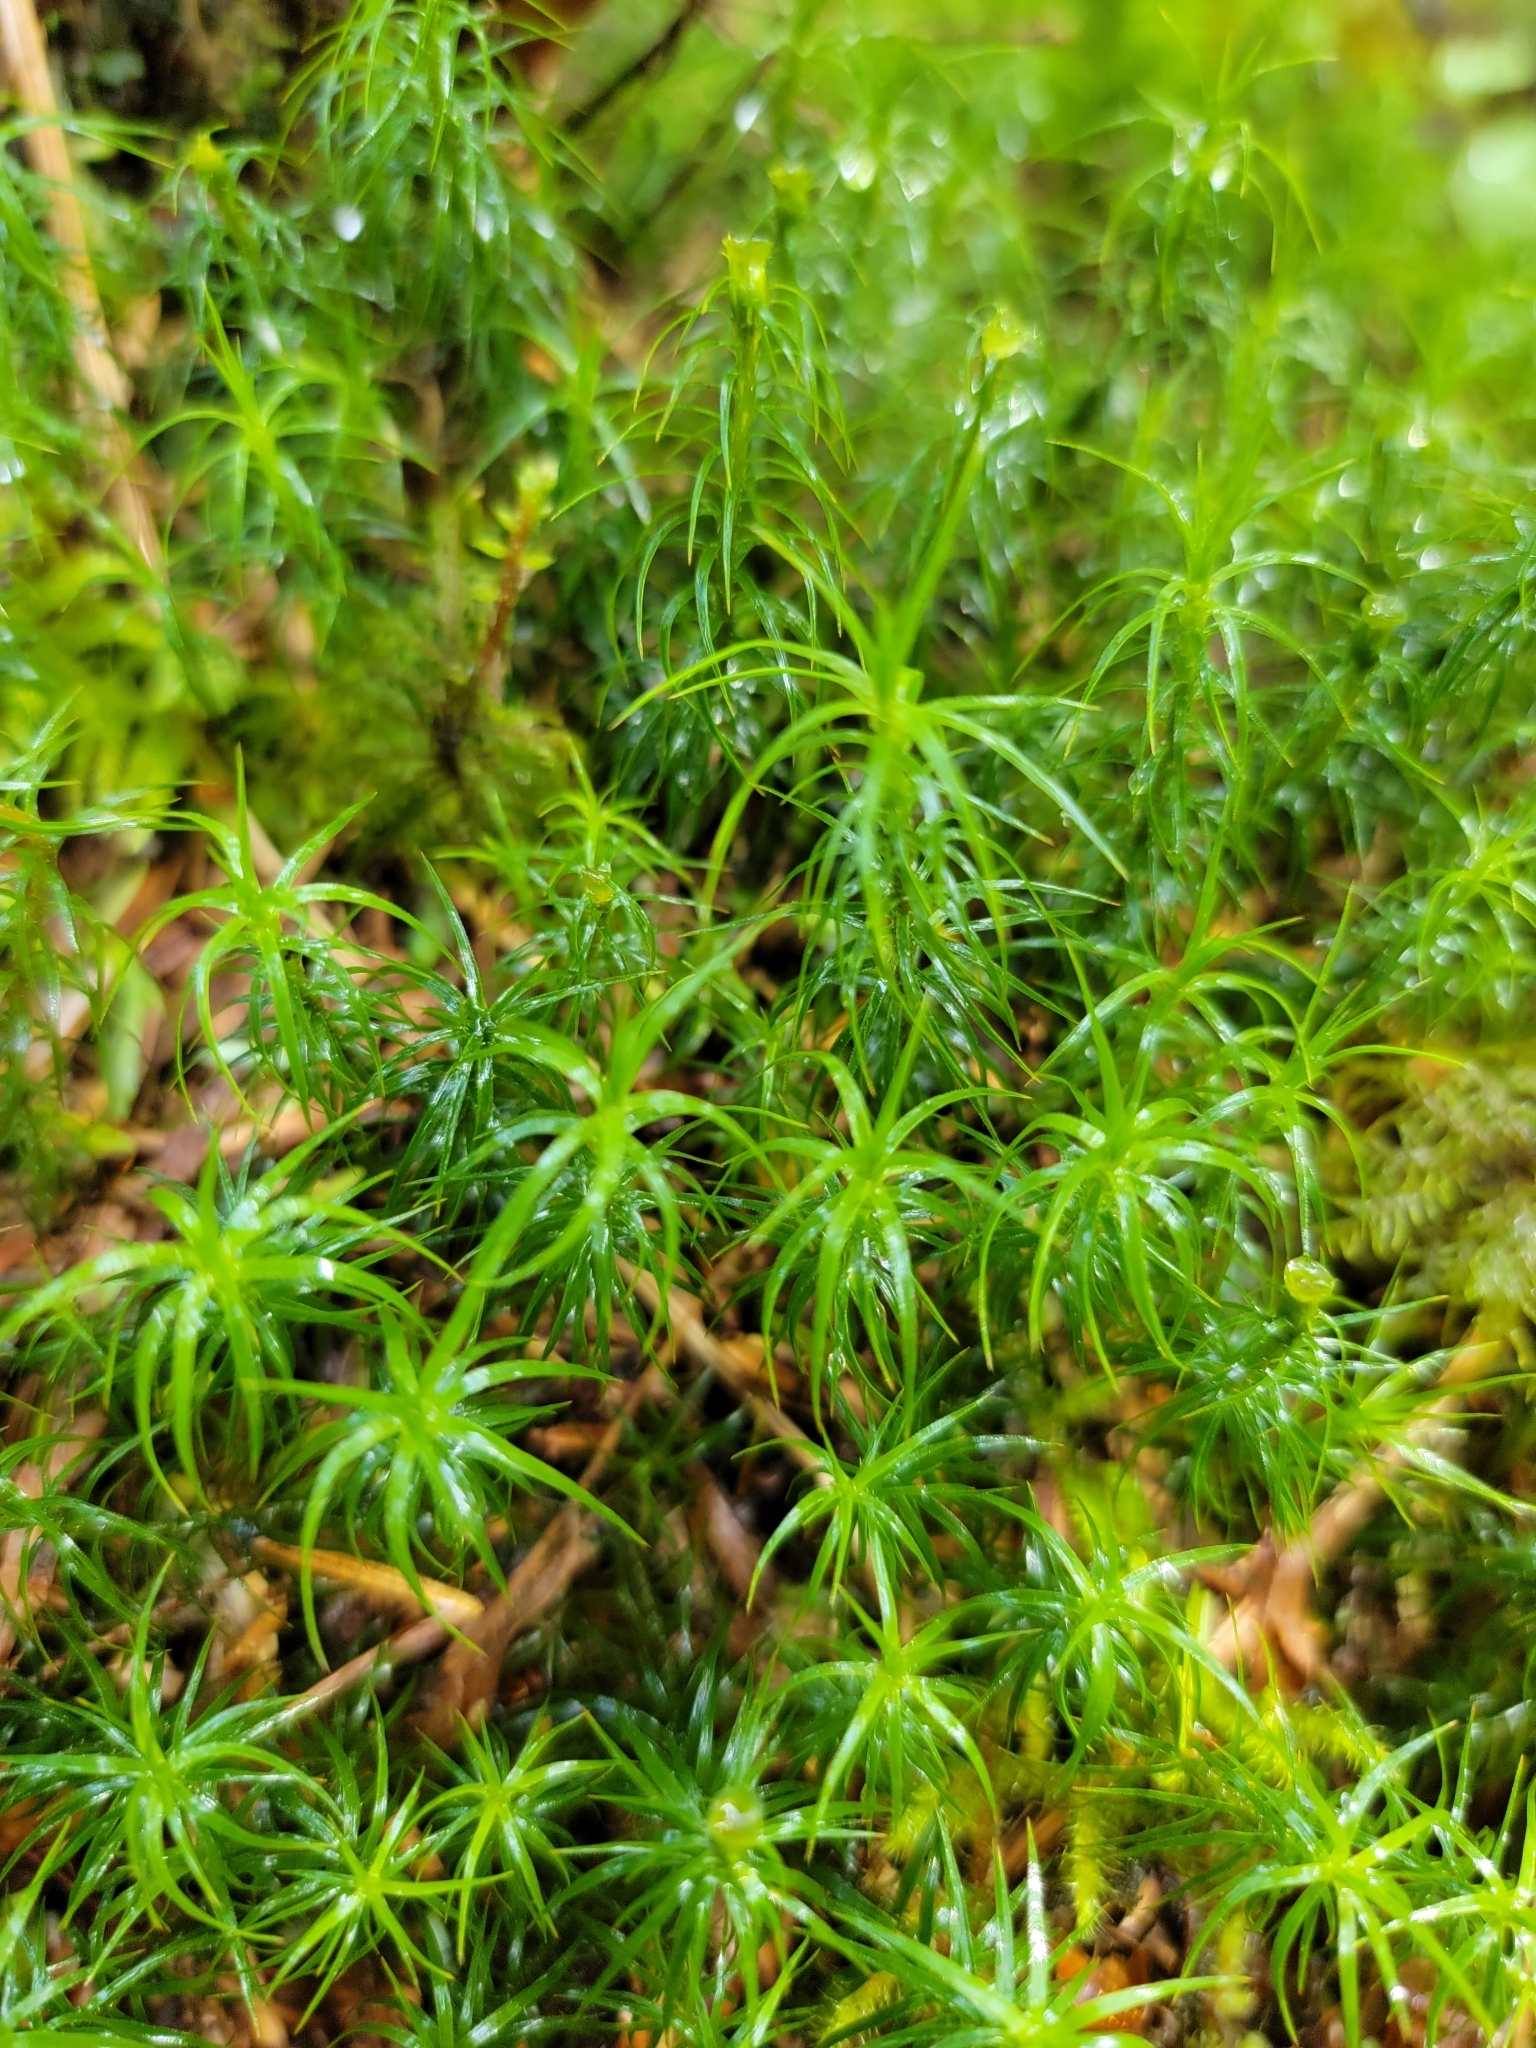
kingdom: Plantae
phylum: Bryophyta
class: Polytrichopsida
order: Polytrichales
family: Polytrichaceae
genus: Polytrichastrum
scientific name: Polytrichastrum alpinum
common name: Alpine haircap
